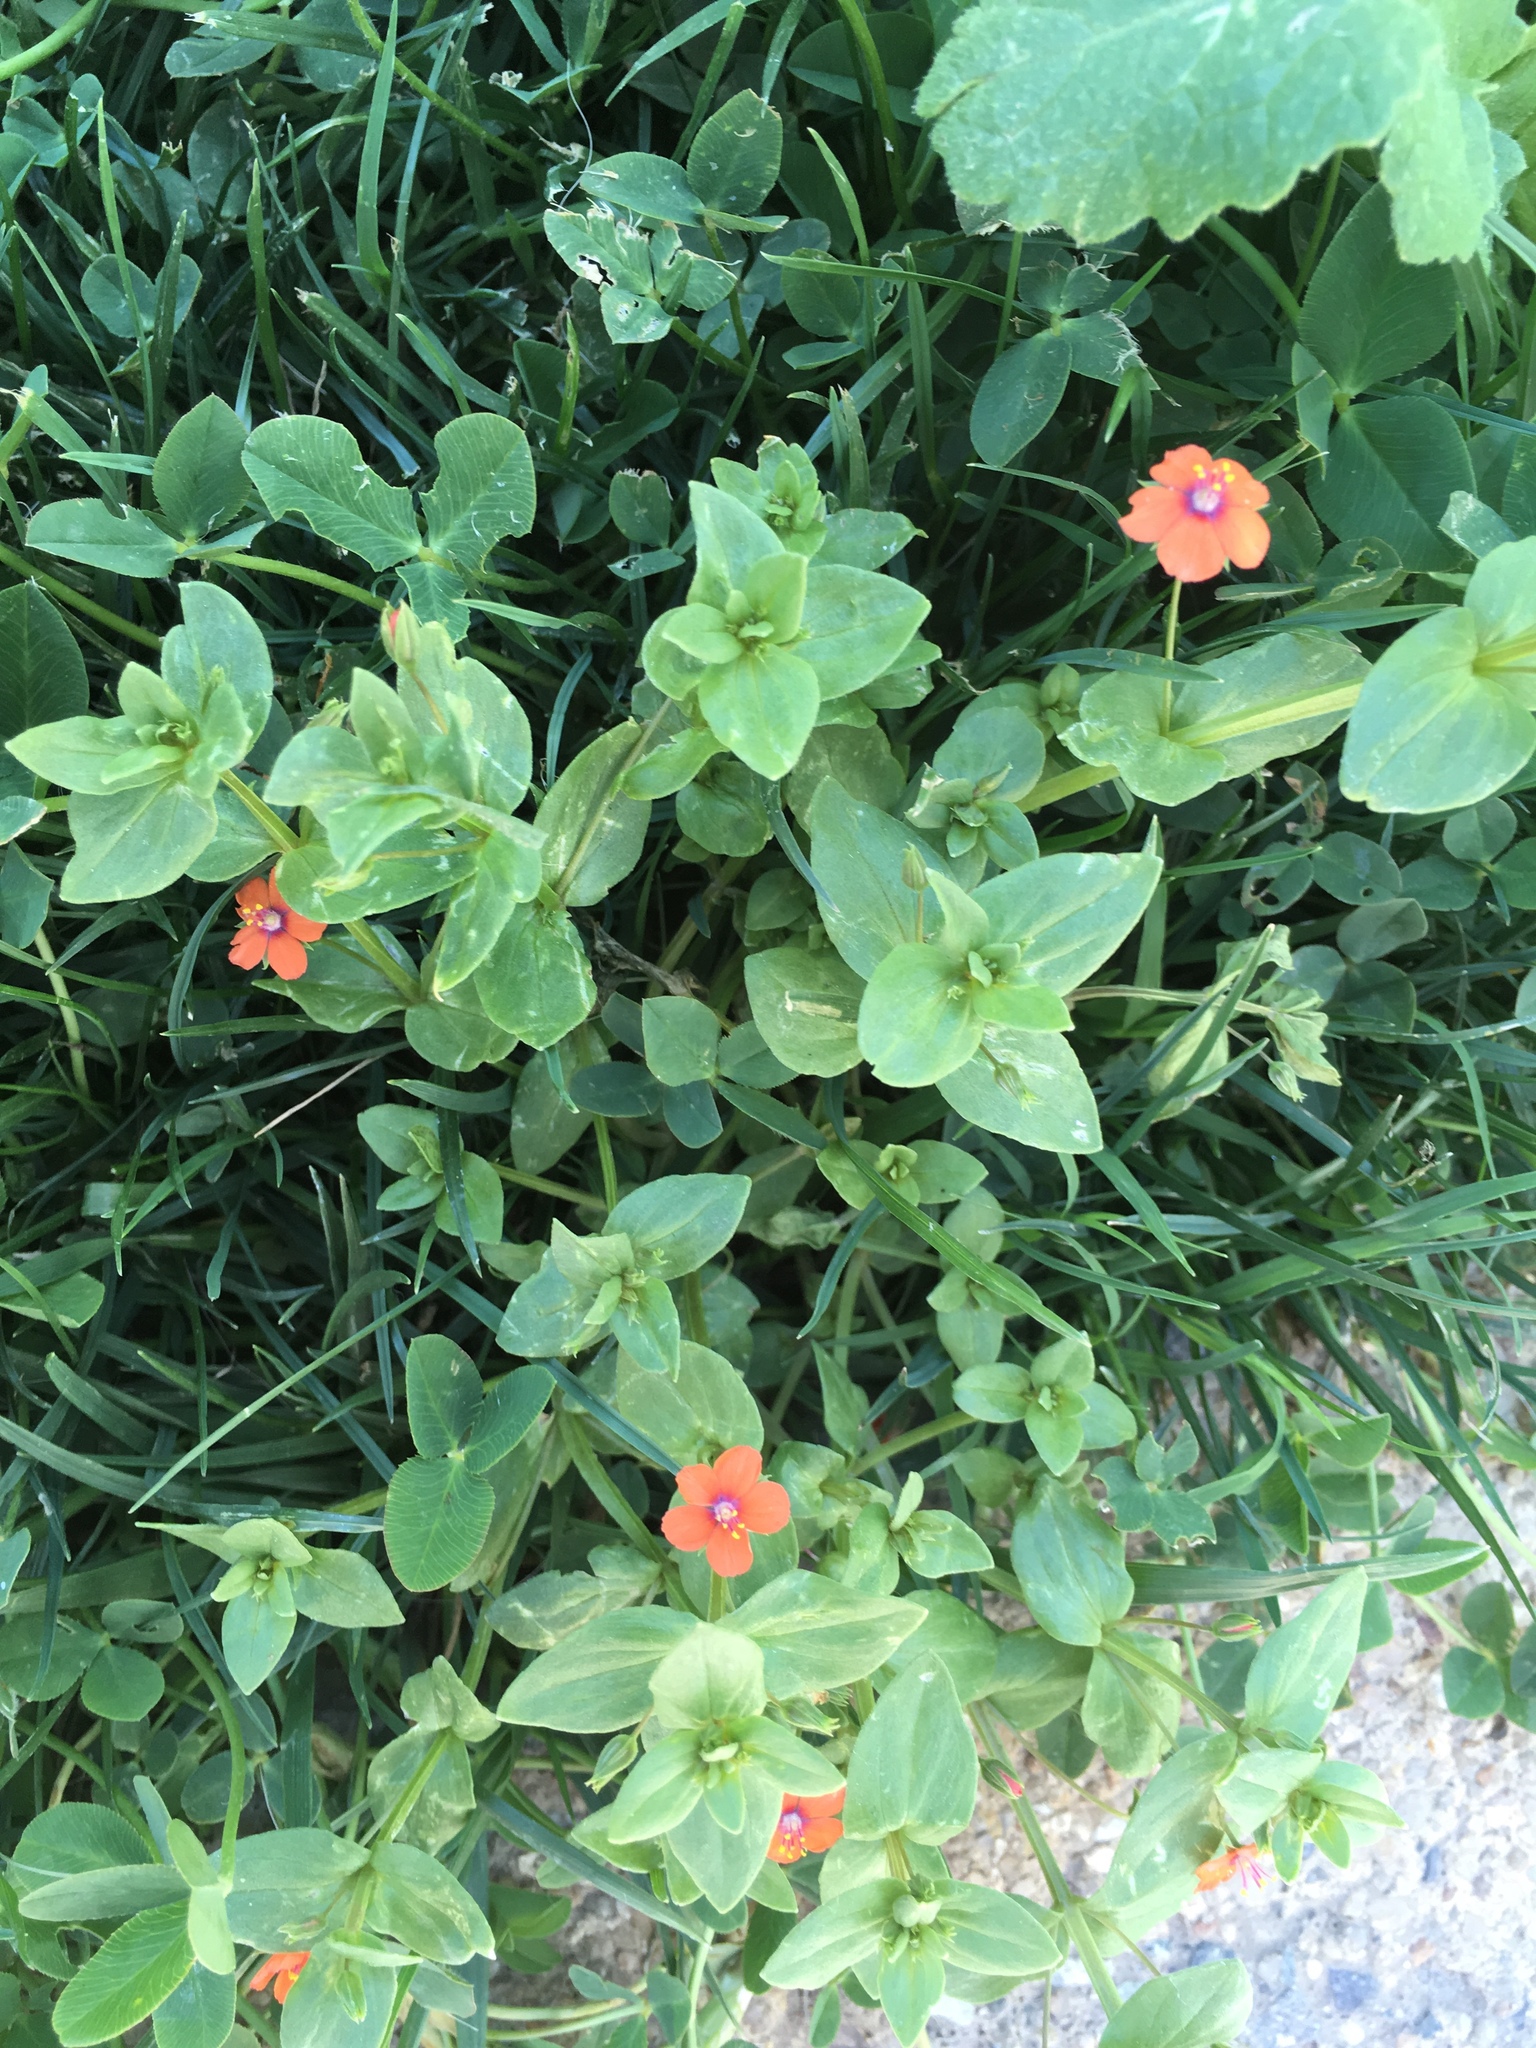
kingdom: Plantae
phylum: Tracheophyta
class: Magnoliopsida
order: Ericales
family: Primulaceae
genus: Lysimachia
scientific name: Lysimachia arvensis
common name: Scarlet pimpernel
